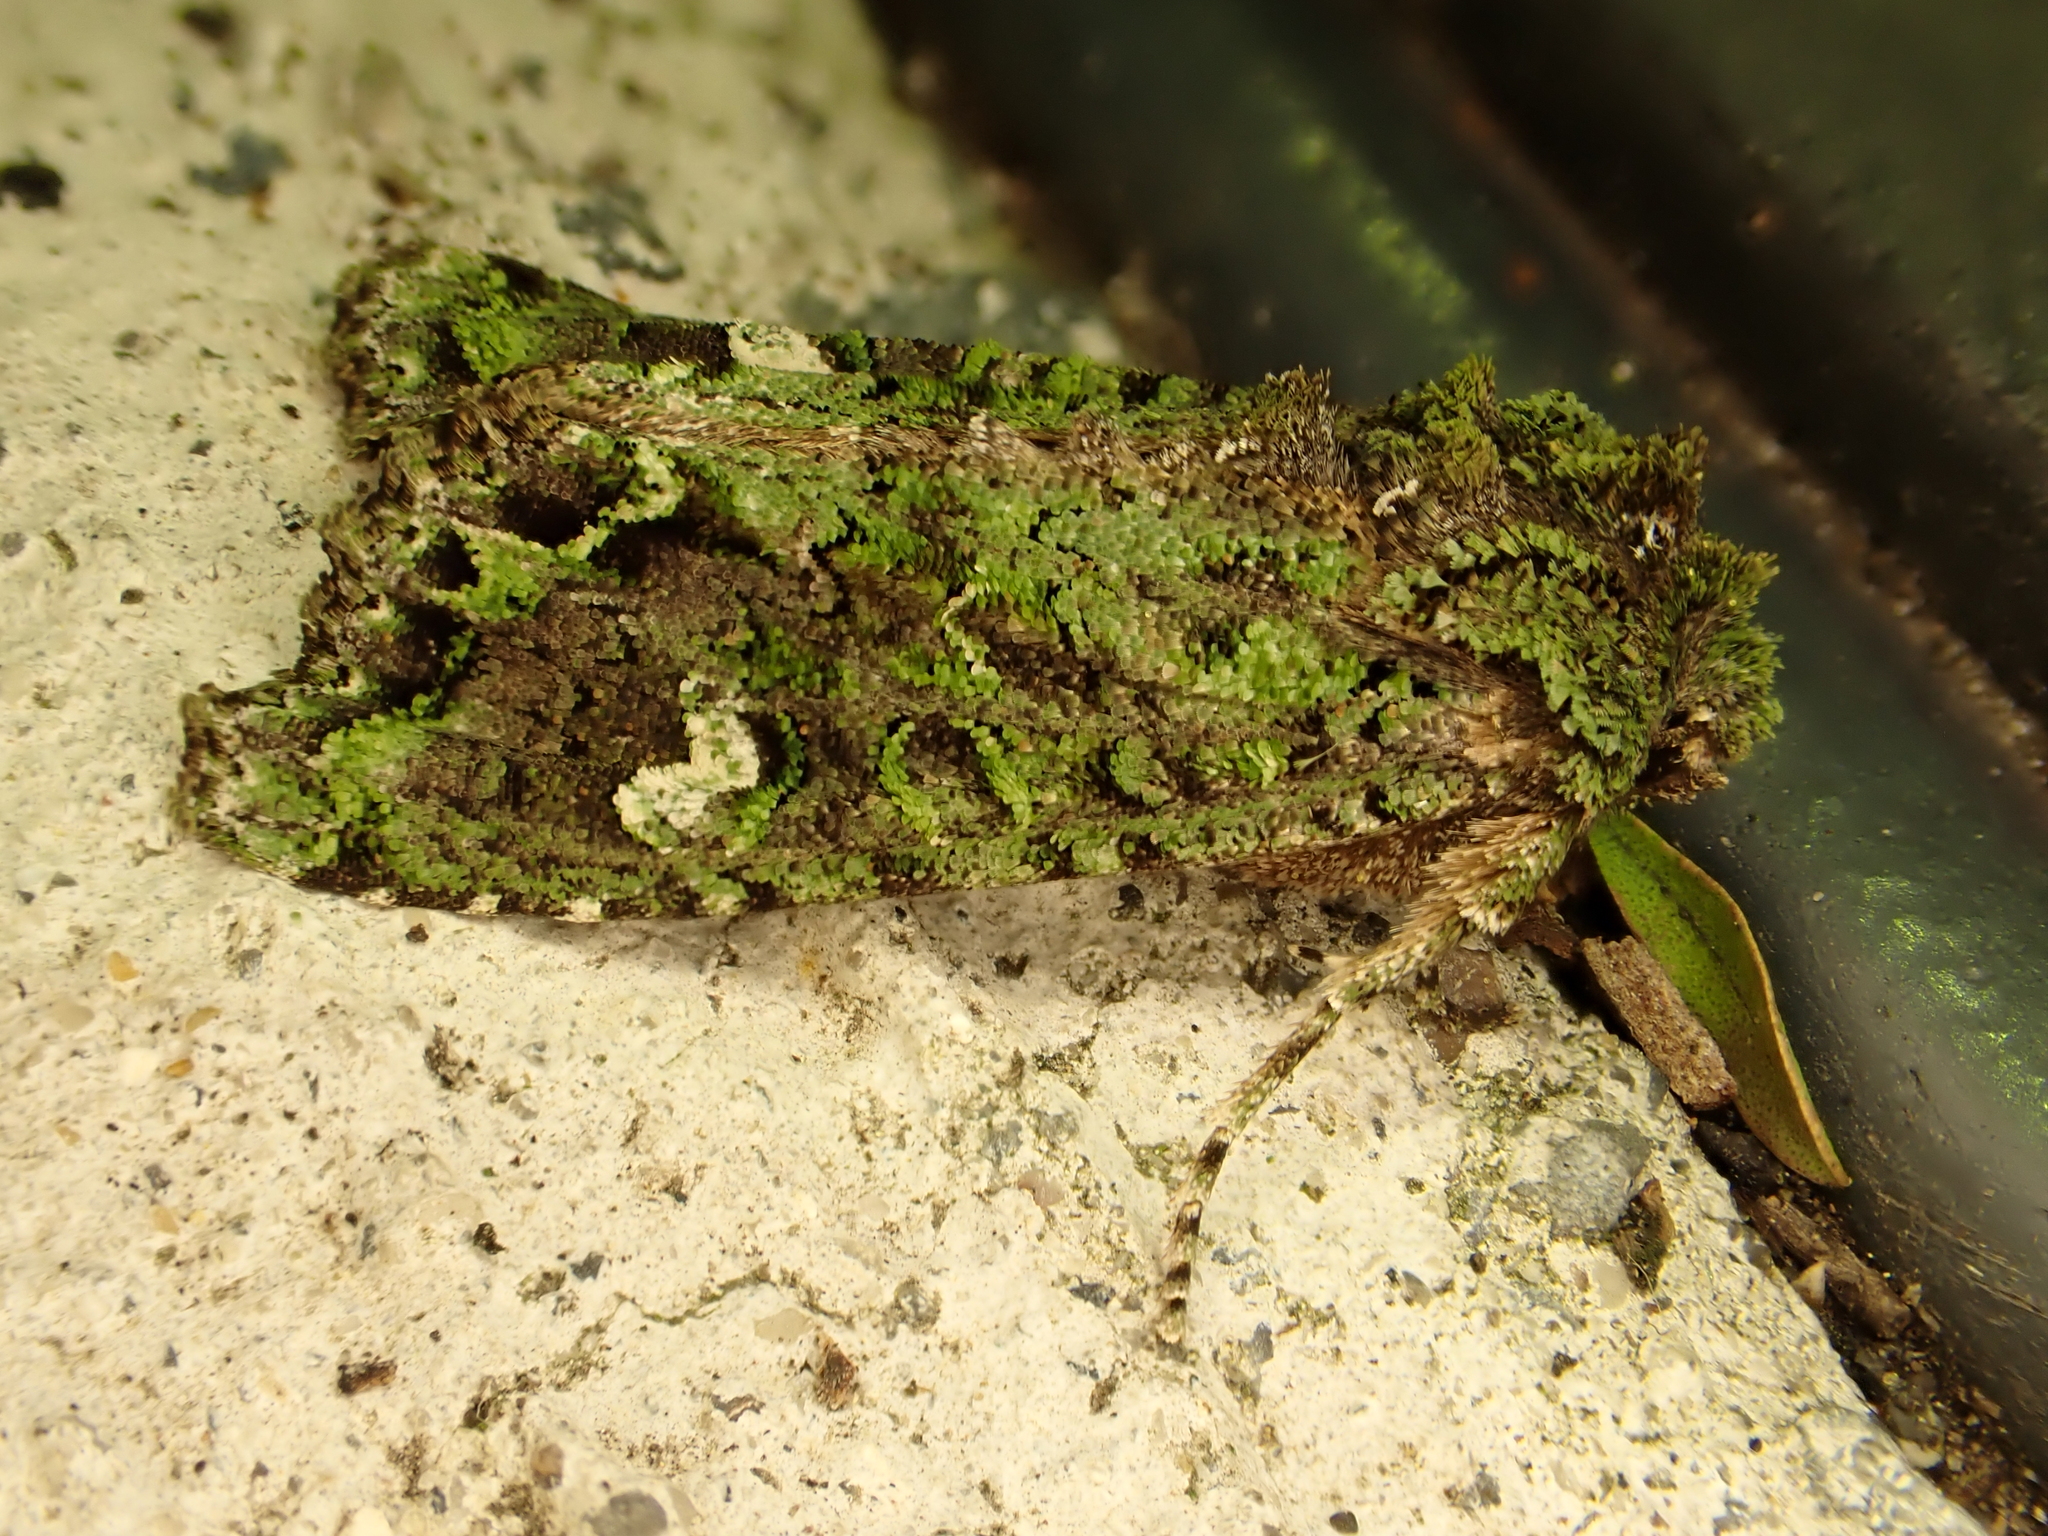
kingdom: Animalia
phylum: Arthropoda
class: Insecta
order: Lepidoptera
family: Noctuidae
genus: Ichneutica
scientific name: Ichneutica
